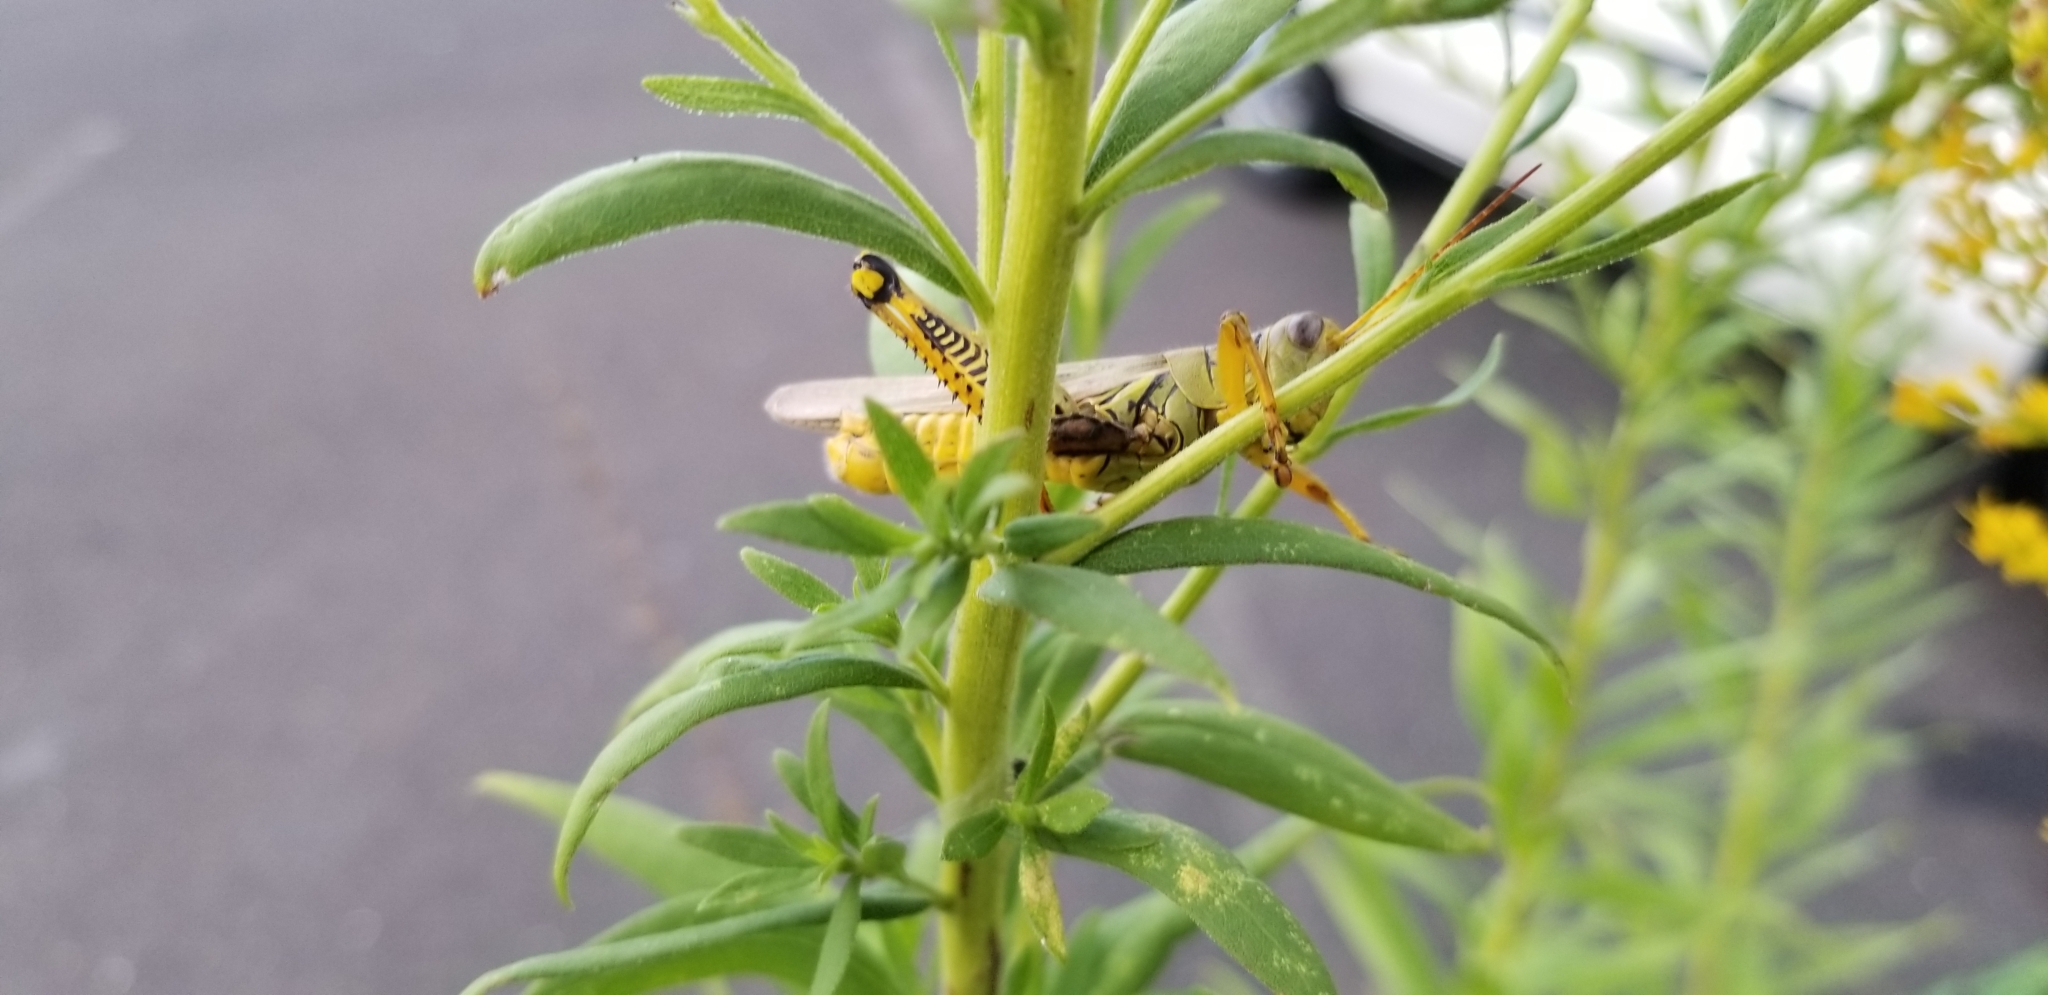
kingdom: Animalia
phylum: Arthropoda
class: Insecta
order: Orthoptera
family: Acrididae
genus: Melanoplus
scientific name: Melanoplus differentialis
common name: Differential grasshopper
